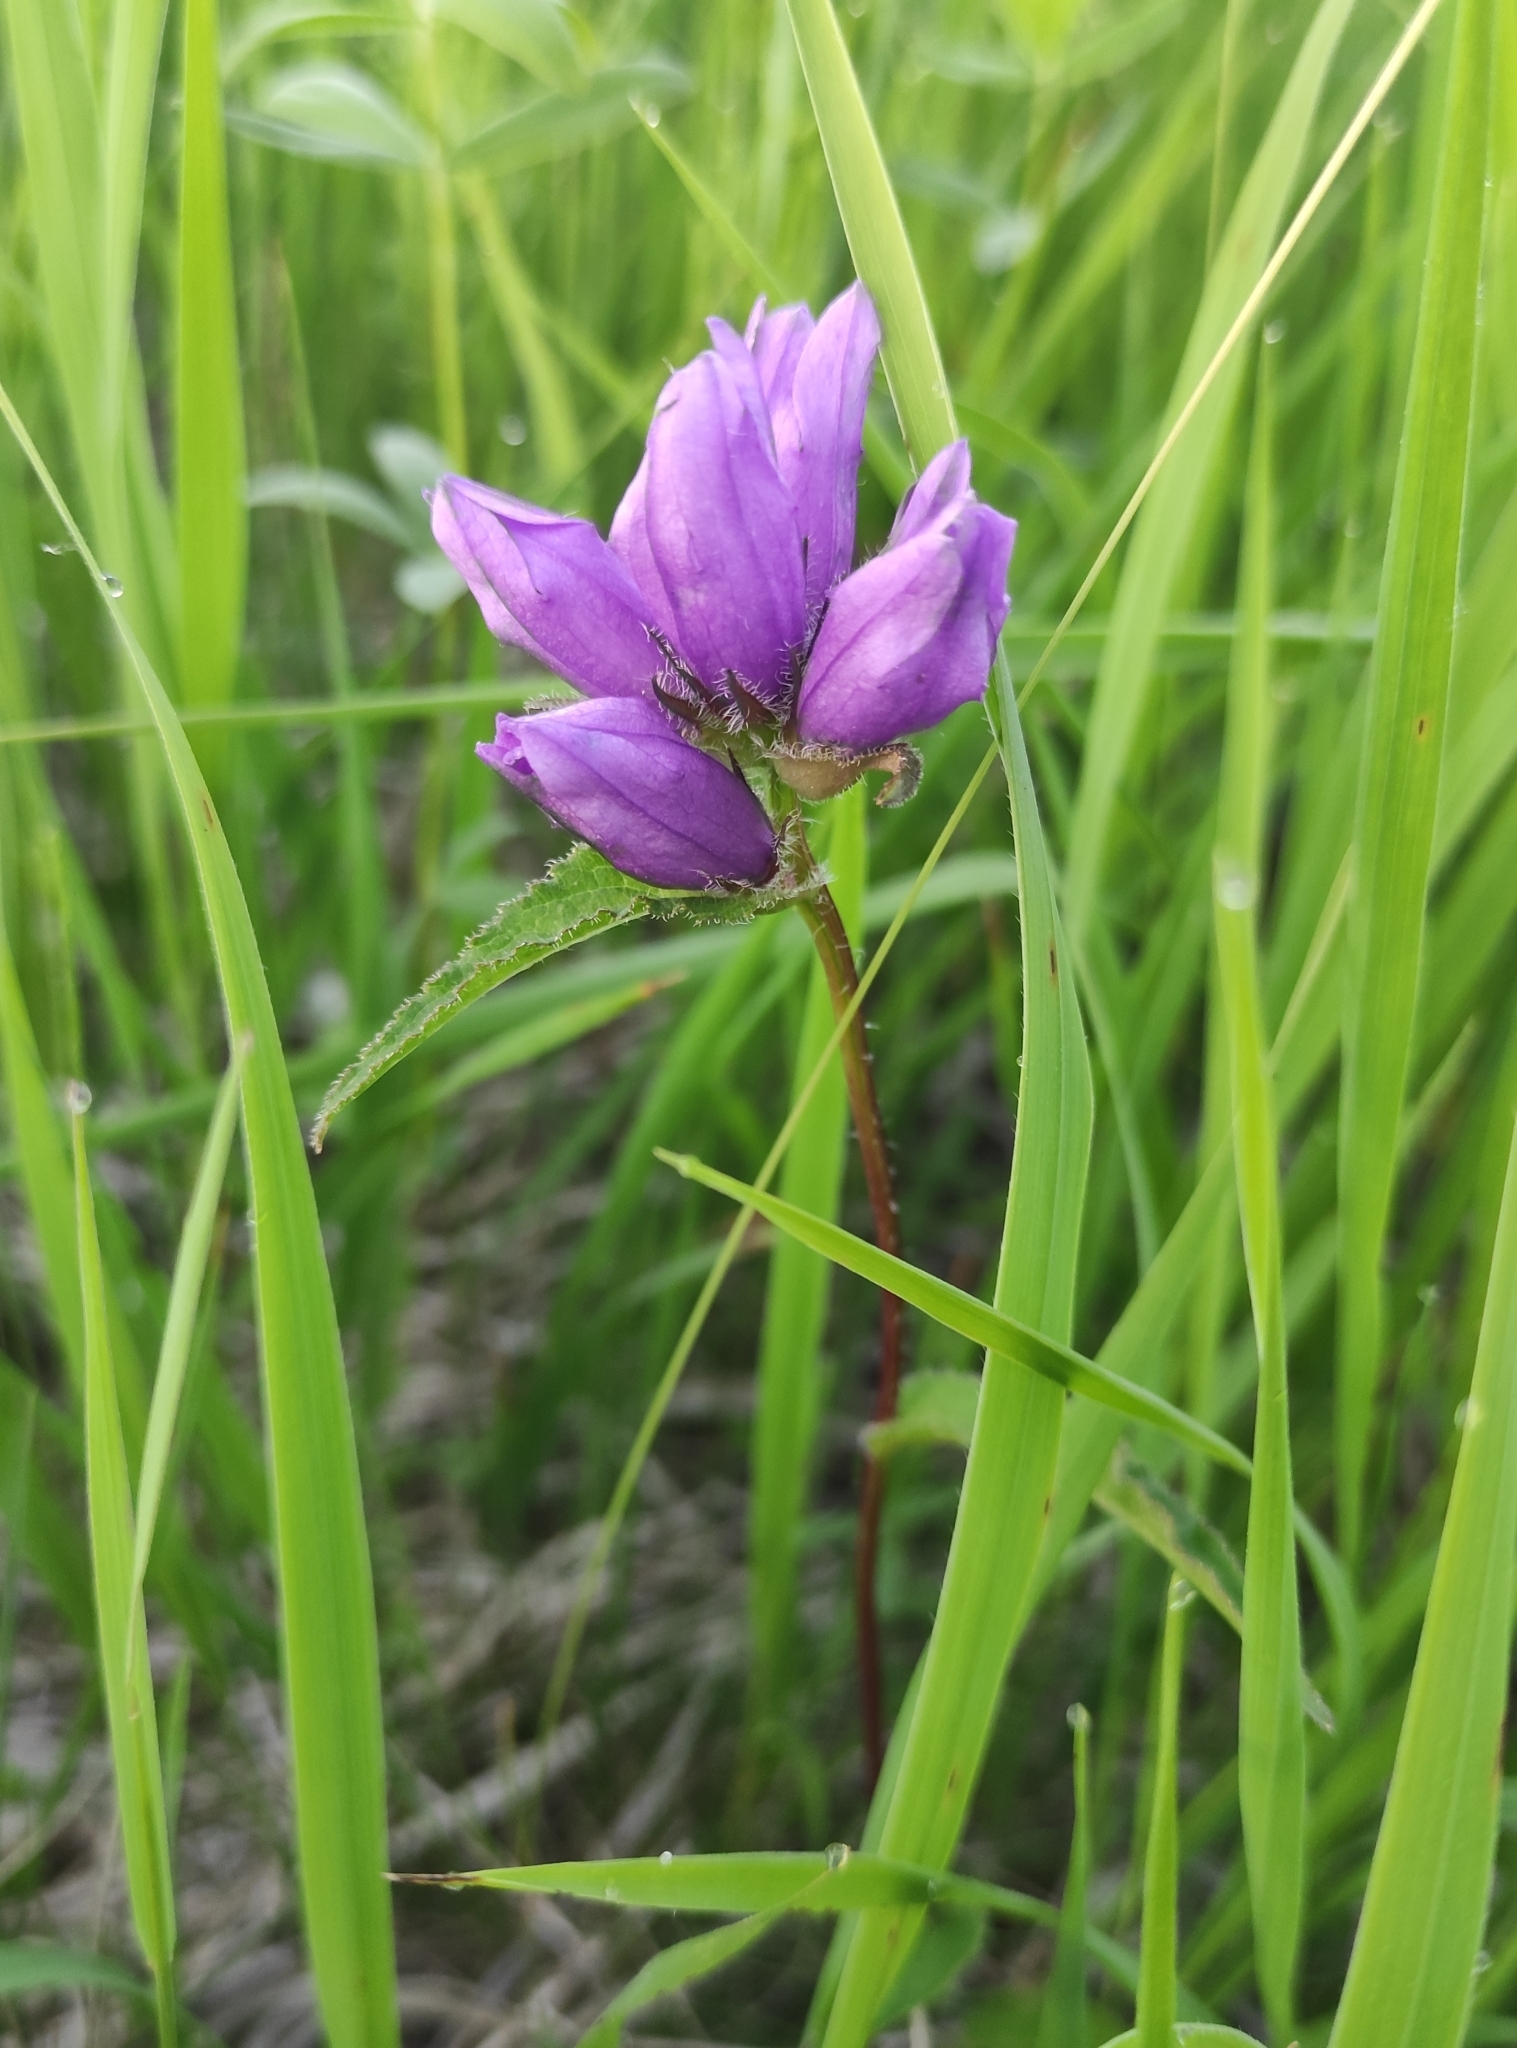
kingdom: Plantae
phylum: Tracheophyta
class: Magnoliopsida
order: Asterales
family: Campanulaceae
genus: Campanula
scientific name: Campanula glomerata
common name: Clustered bellflower
